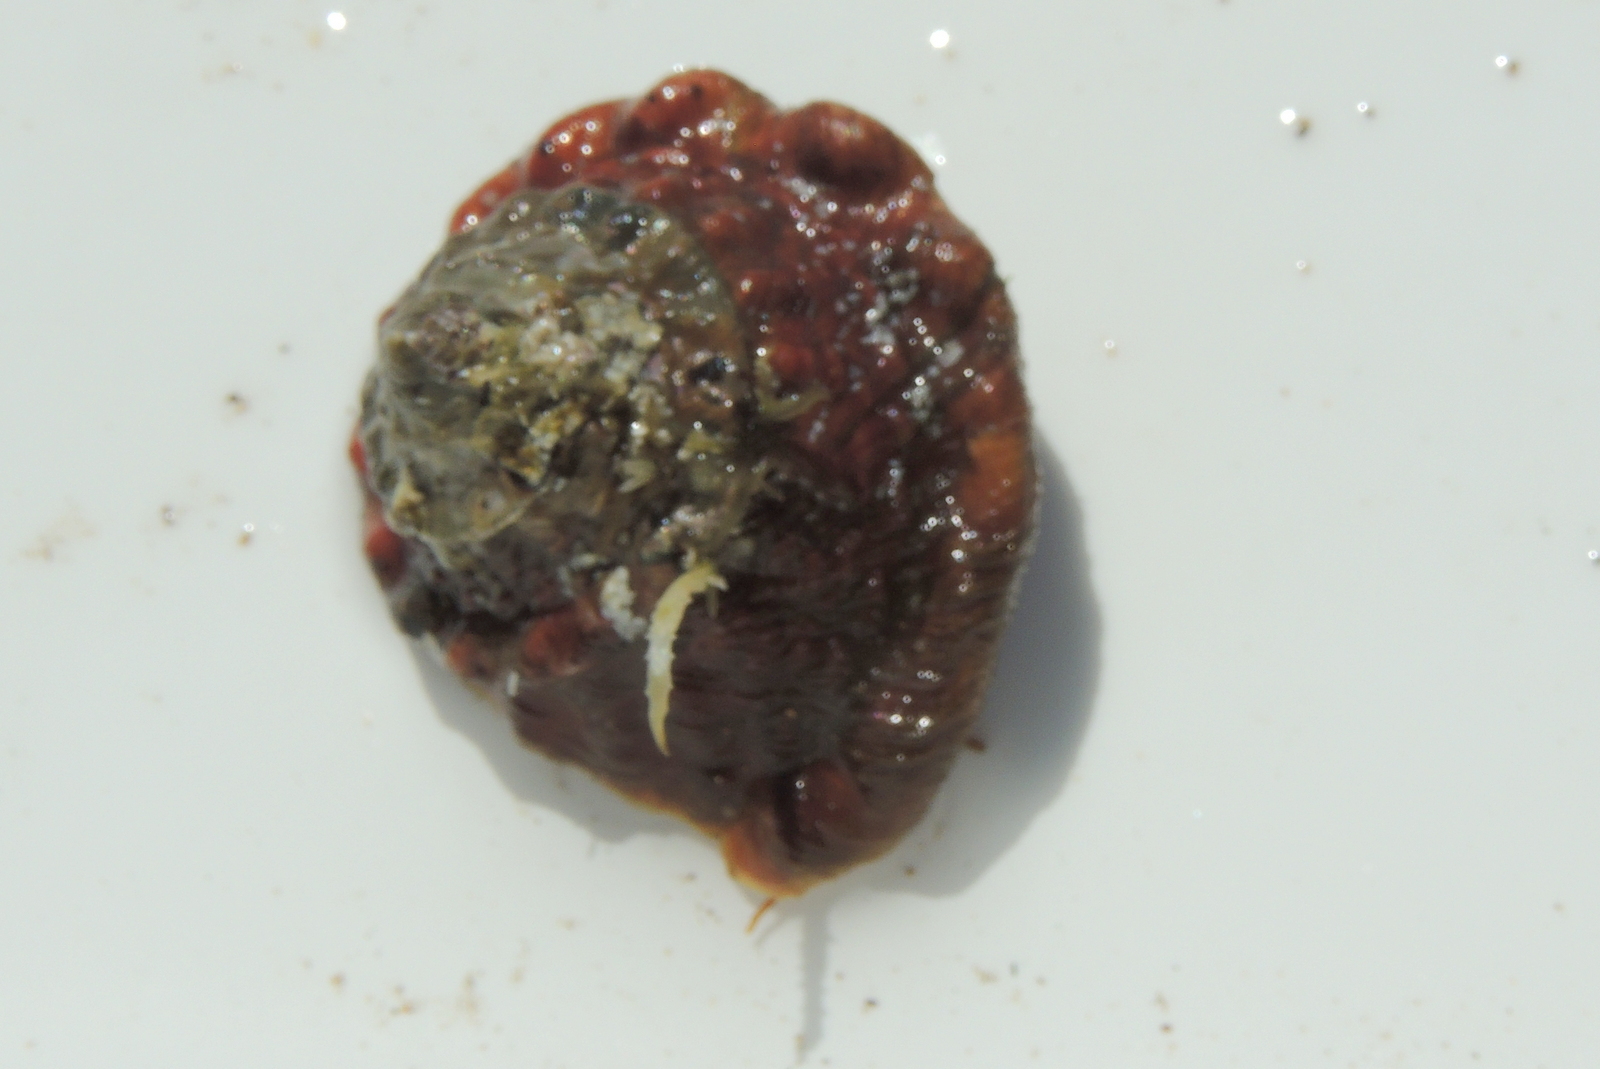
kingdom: Animalia
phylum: Mollusca
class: Gastropoda
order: Trochida
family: Turbinidae
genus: Megastraea
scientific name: Megastraea undosa
